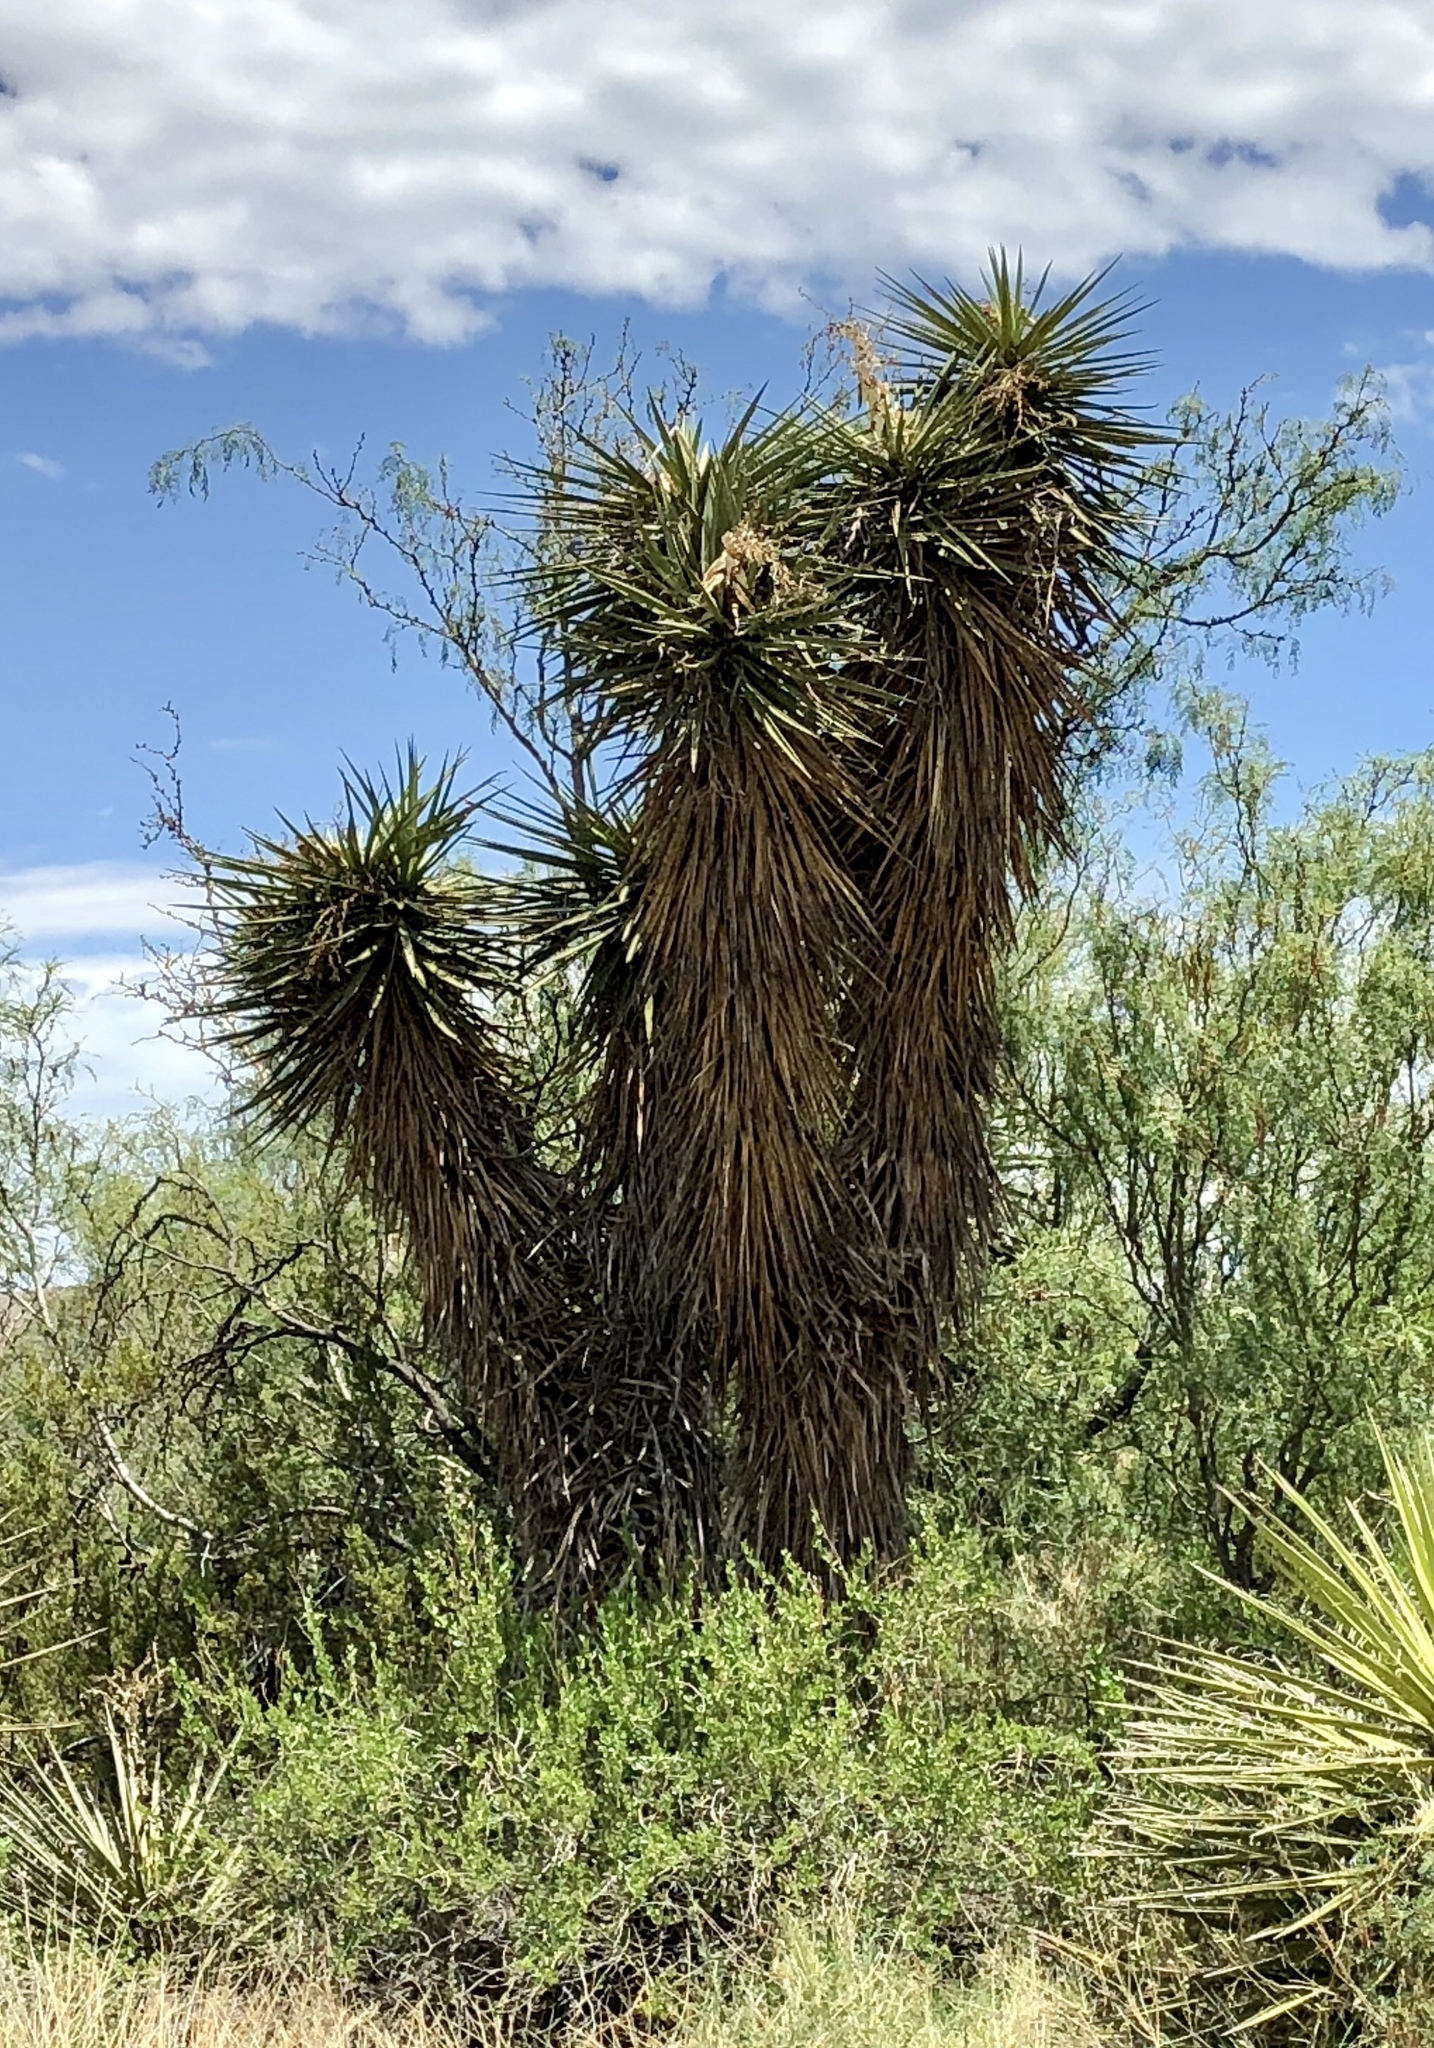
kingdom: Plantae
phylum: Tracheophyta
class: Liliopsida
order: Asparagales
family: Asparagaceae
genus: Yucca
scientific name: Yucca treculiana
